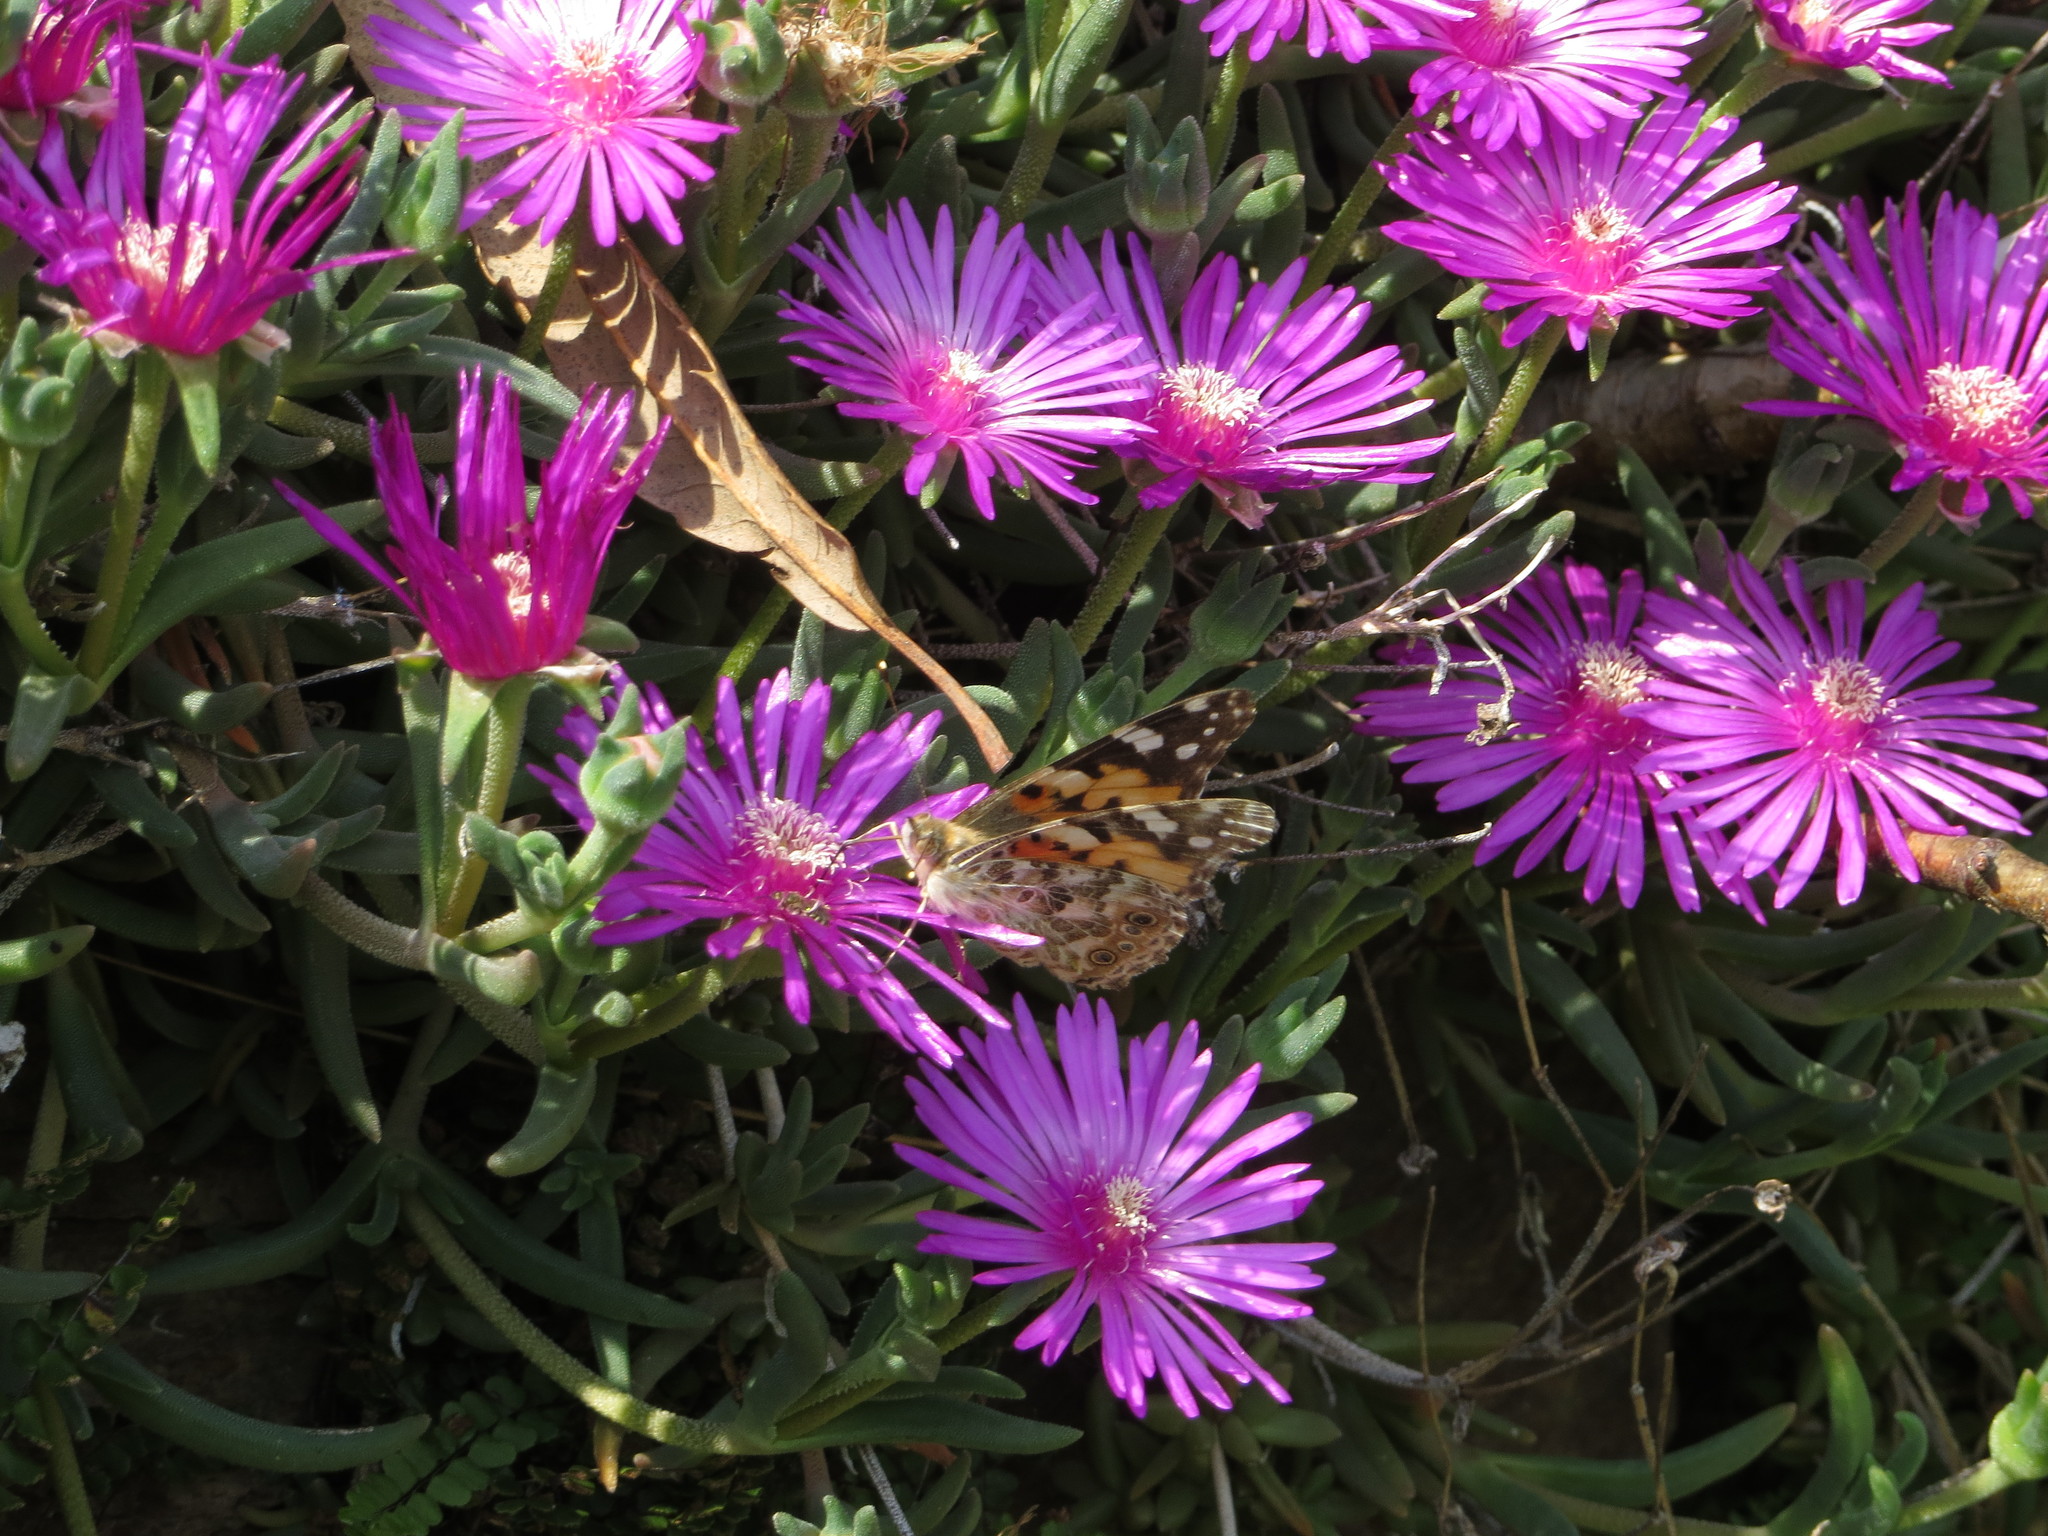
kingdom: Animalia
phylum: Arthropoda
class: Insecta
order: Lepidoptera
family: Nymphalidae
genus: Vanessa
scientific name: Vanessa cardui
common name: Painted lady
